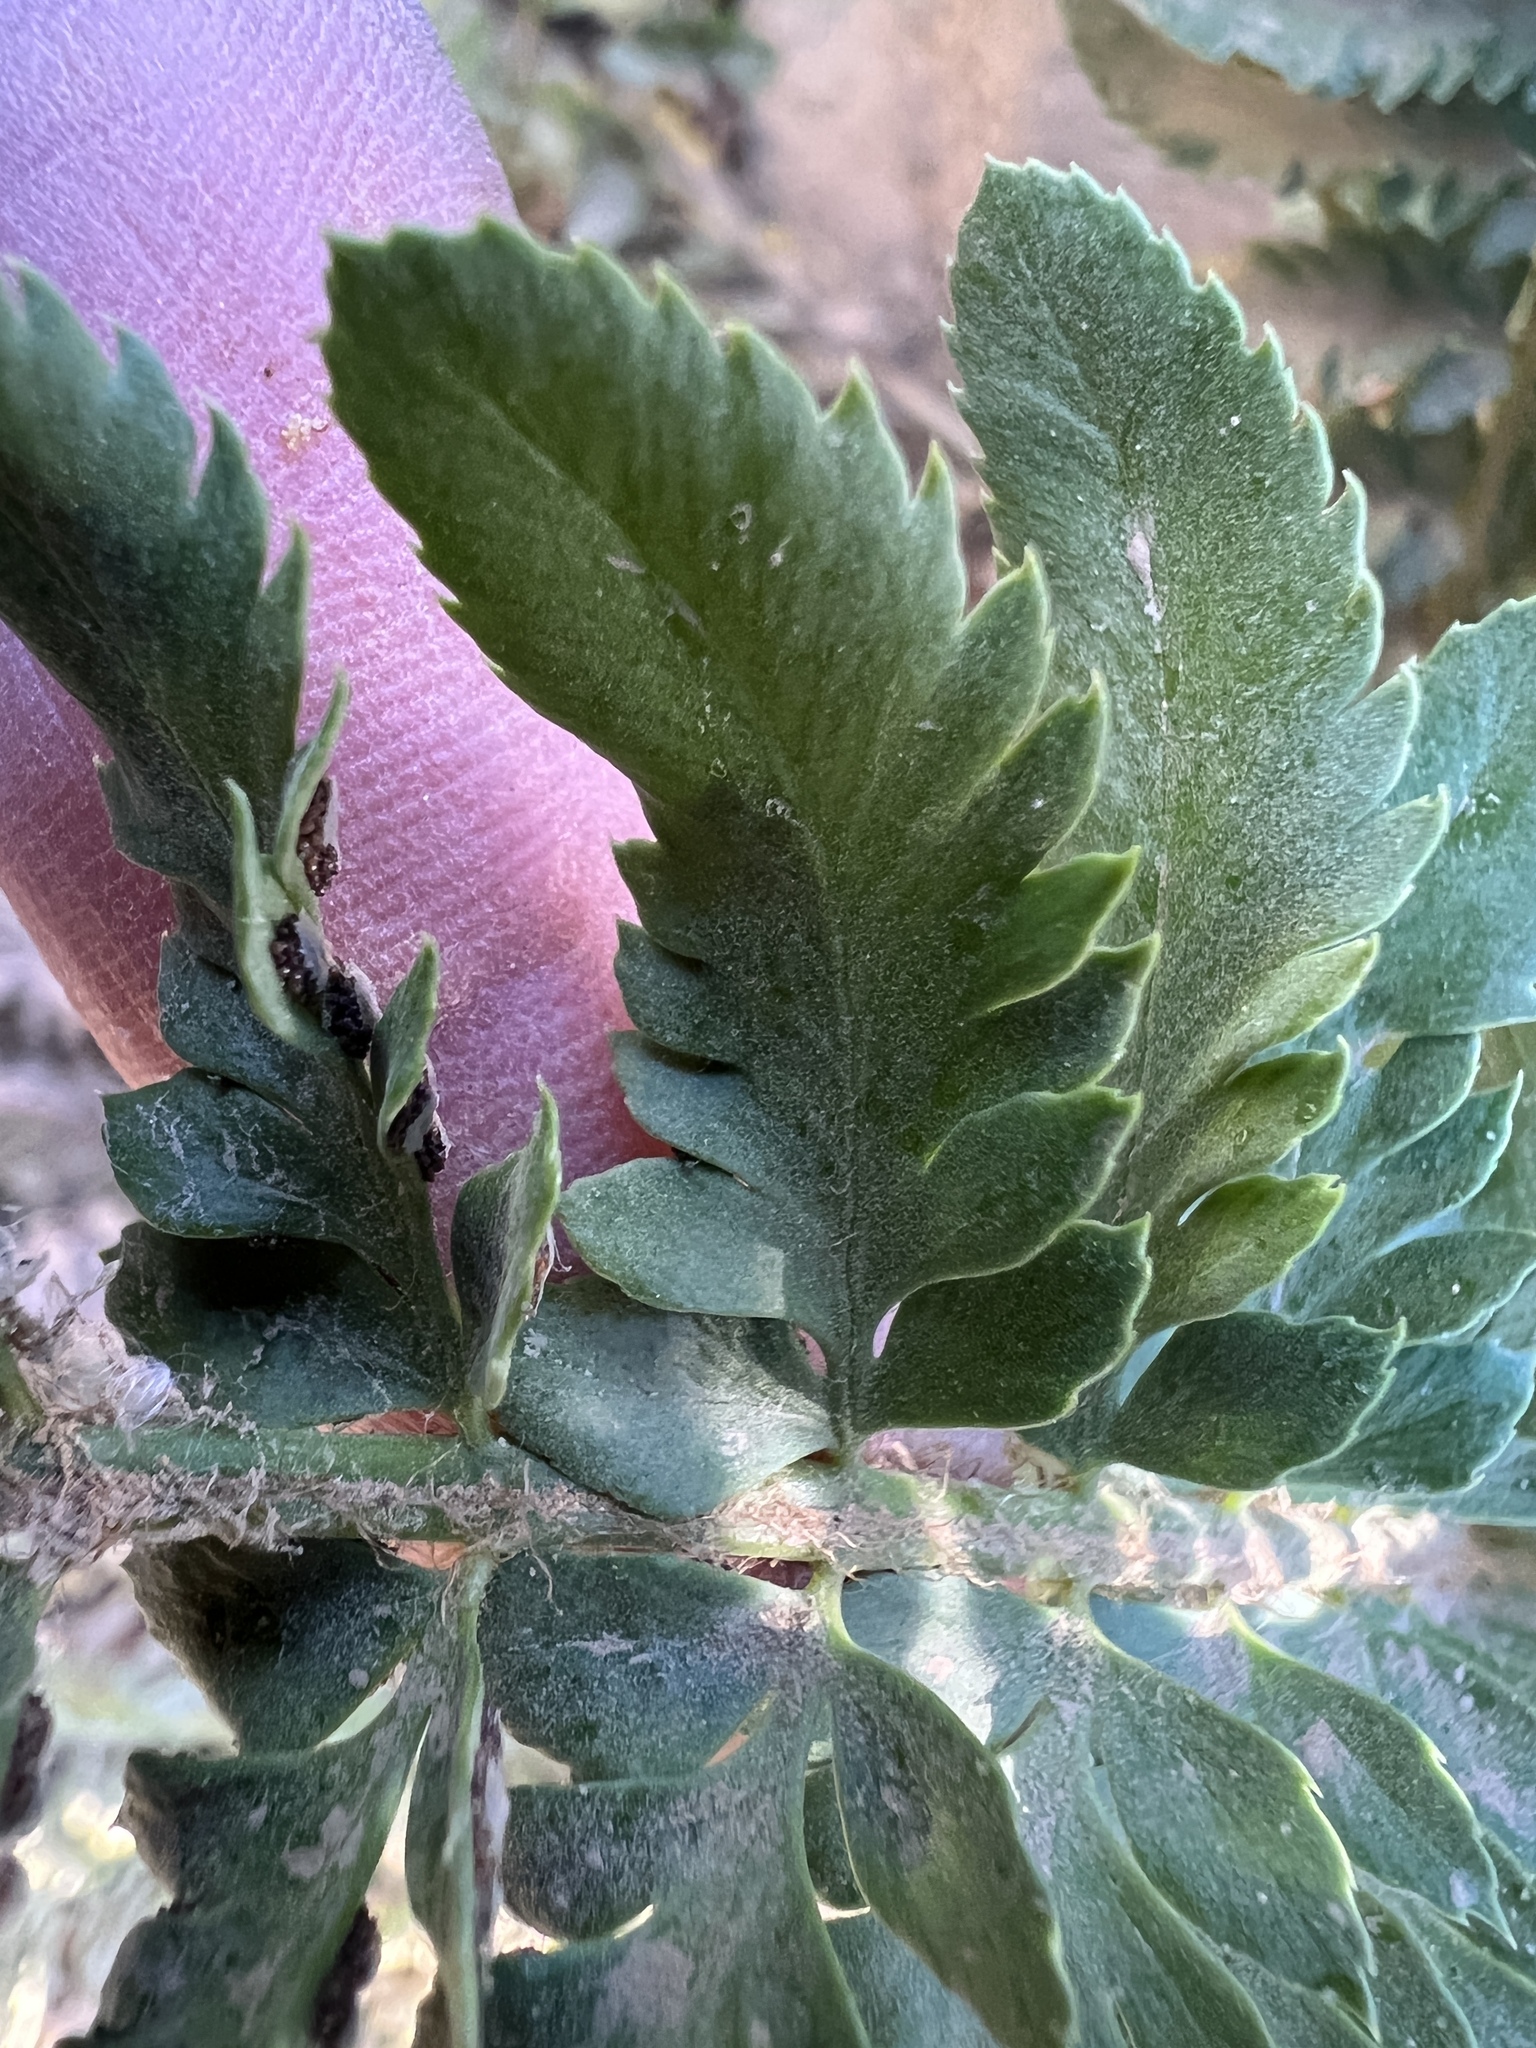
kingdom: Plantae
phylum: Tracheophyta
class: Polypodiopsida
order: Polypodiales
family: Dryopteridaceae
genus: Polystichum
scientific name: Polystichum scopulinum
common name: Eaton's shield fern
